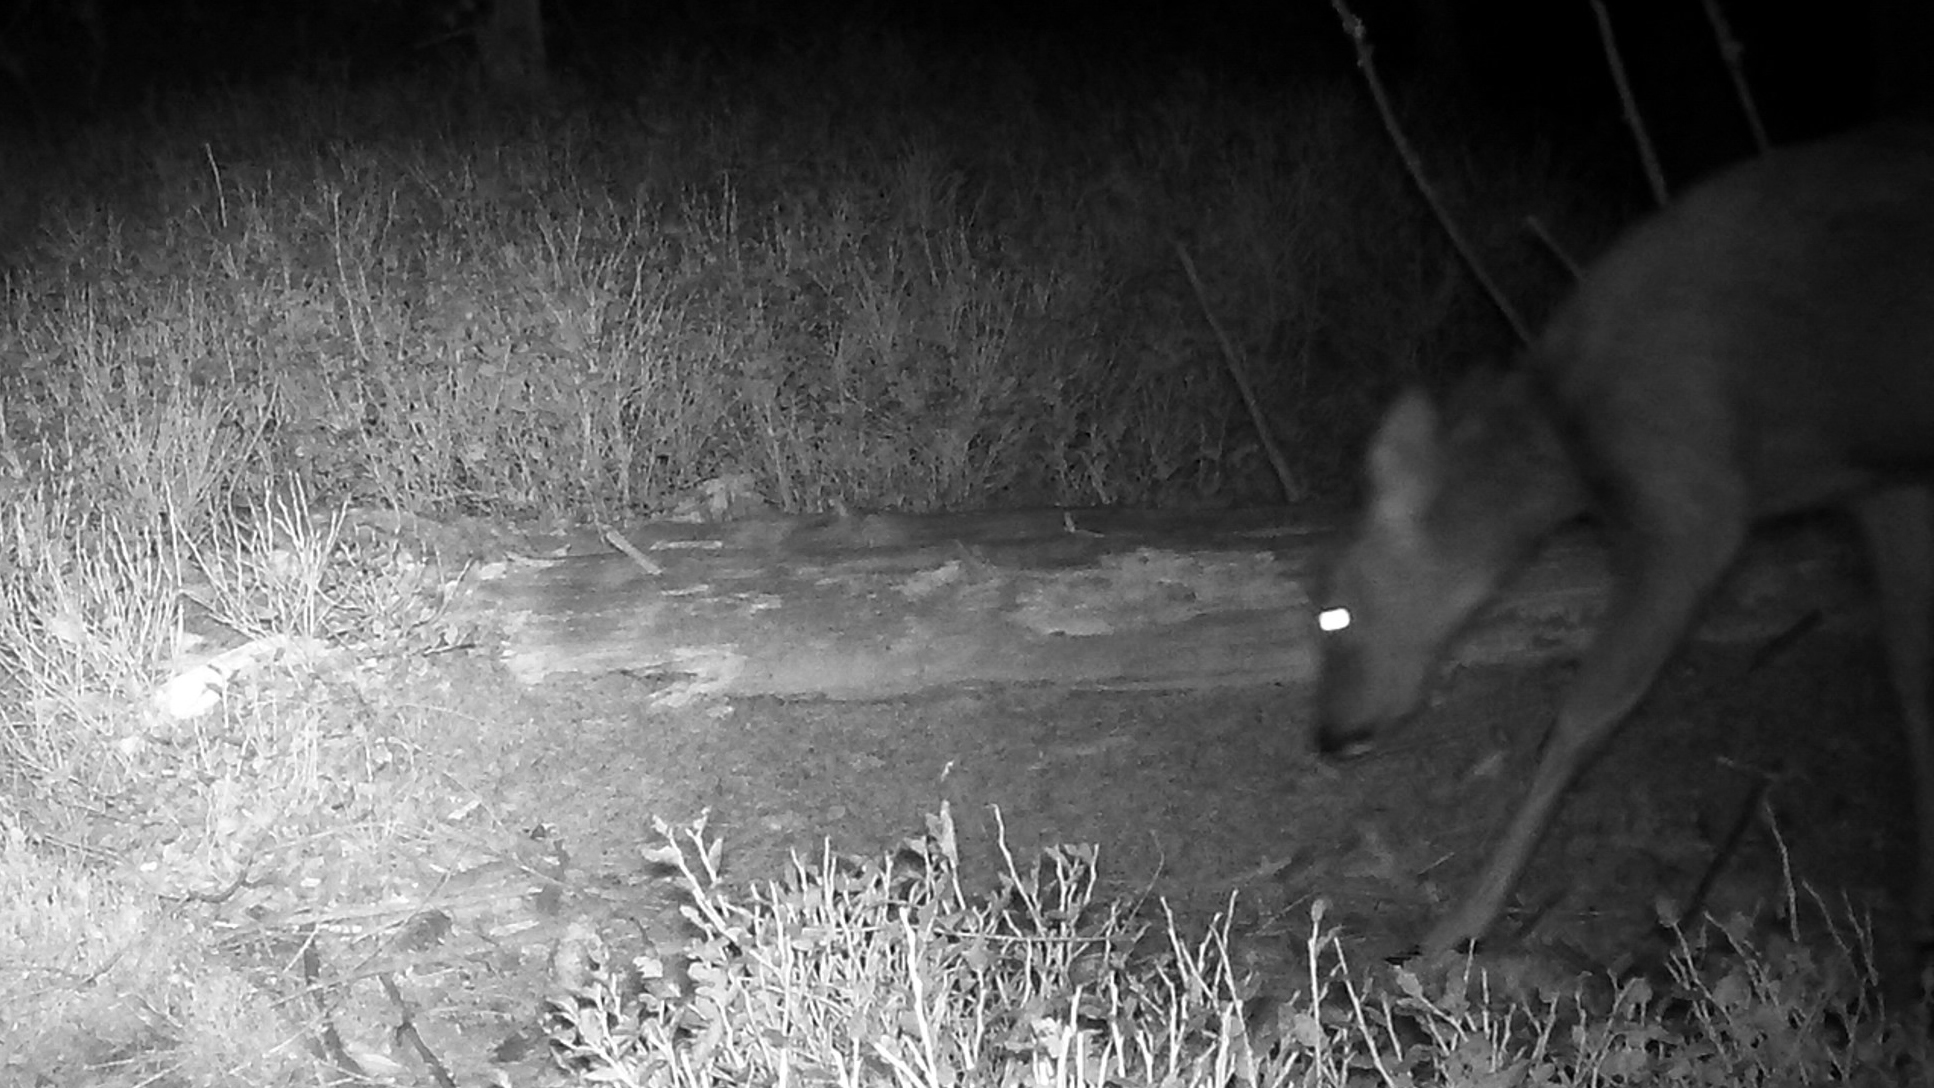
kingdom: Animalia
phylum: Chordata
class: Mammalia
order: Artiodactyla
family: Cervidae
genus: Capreolus
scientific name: Capreolus capreolus
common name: Western roe deer
